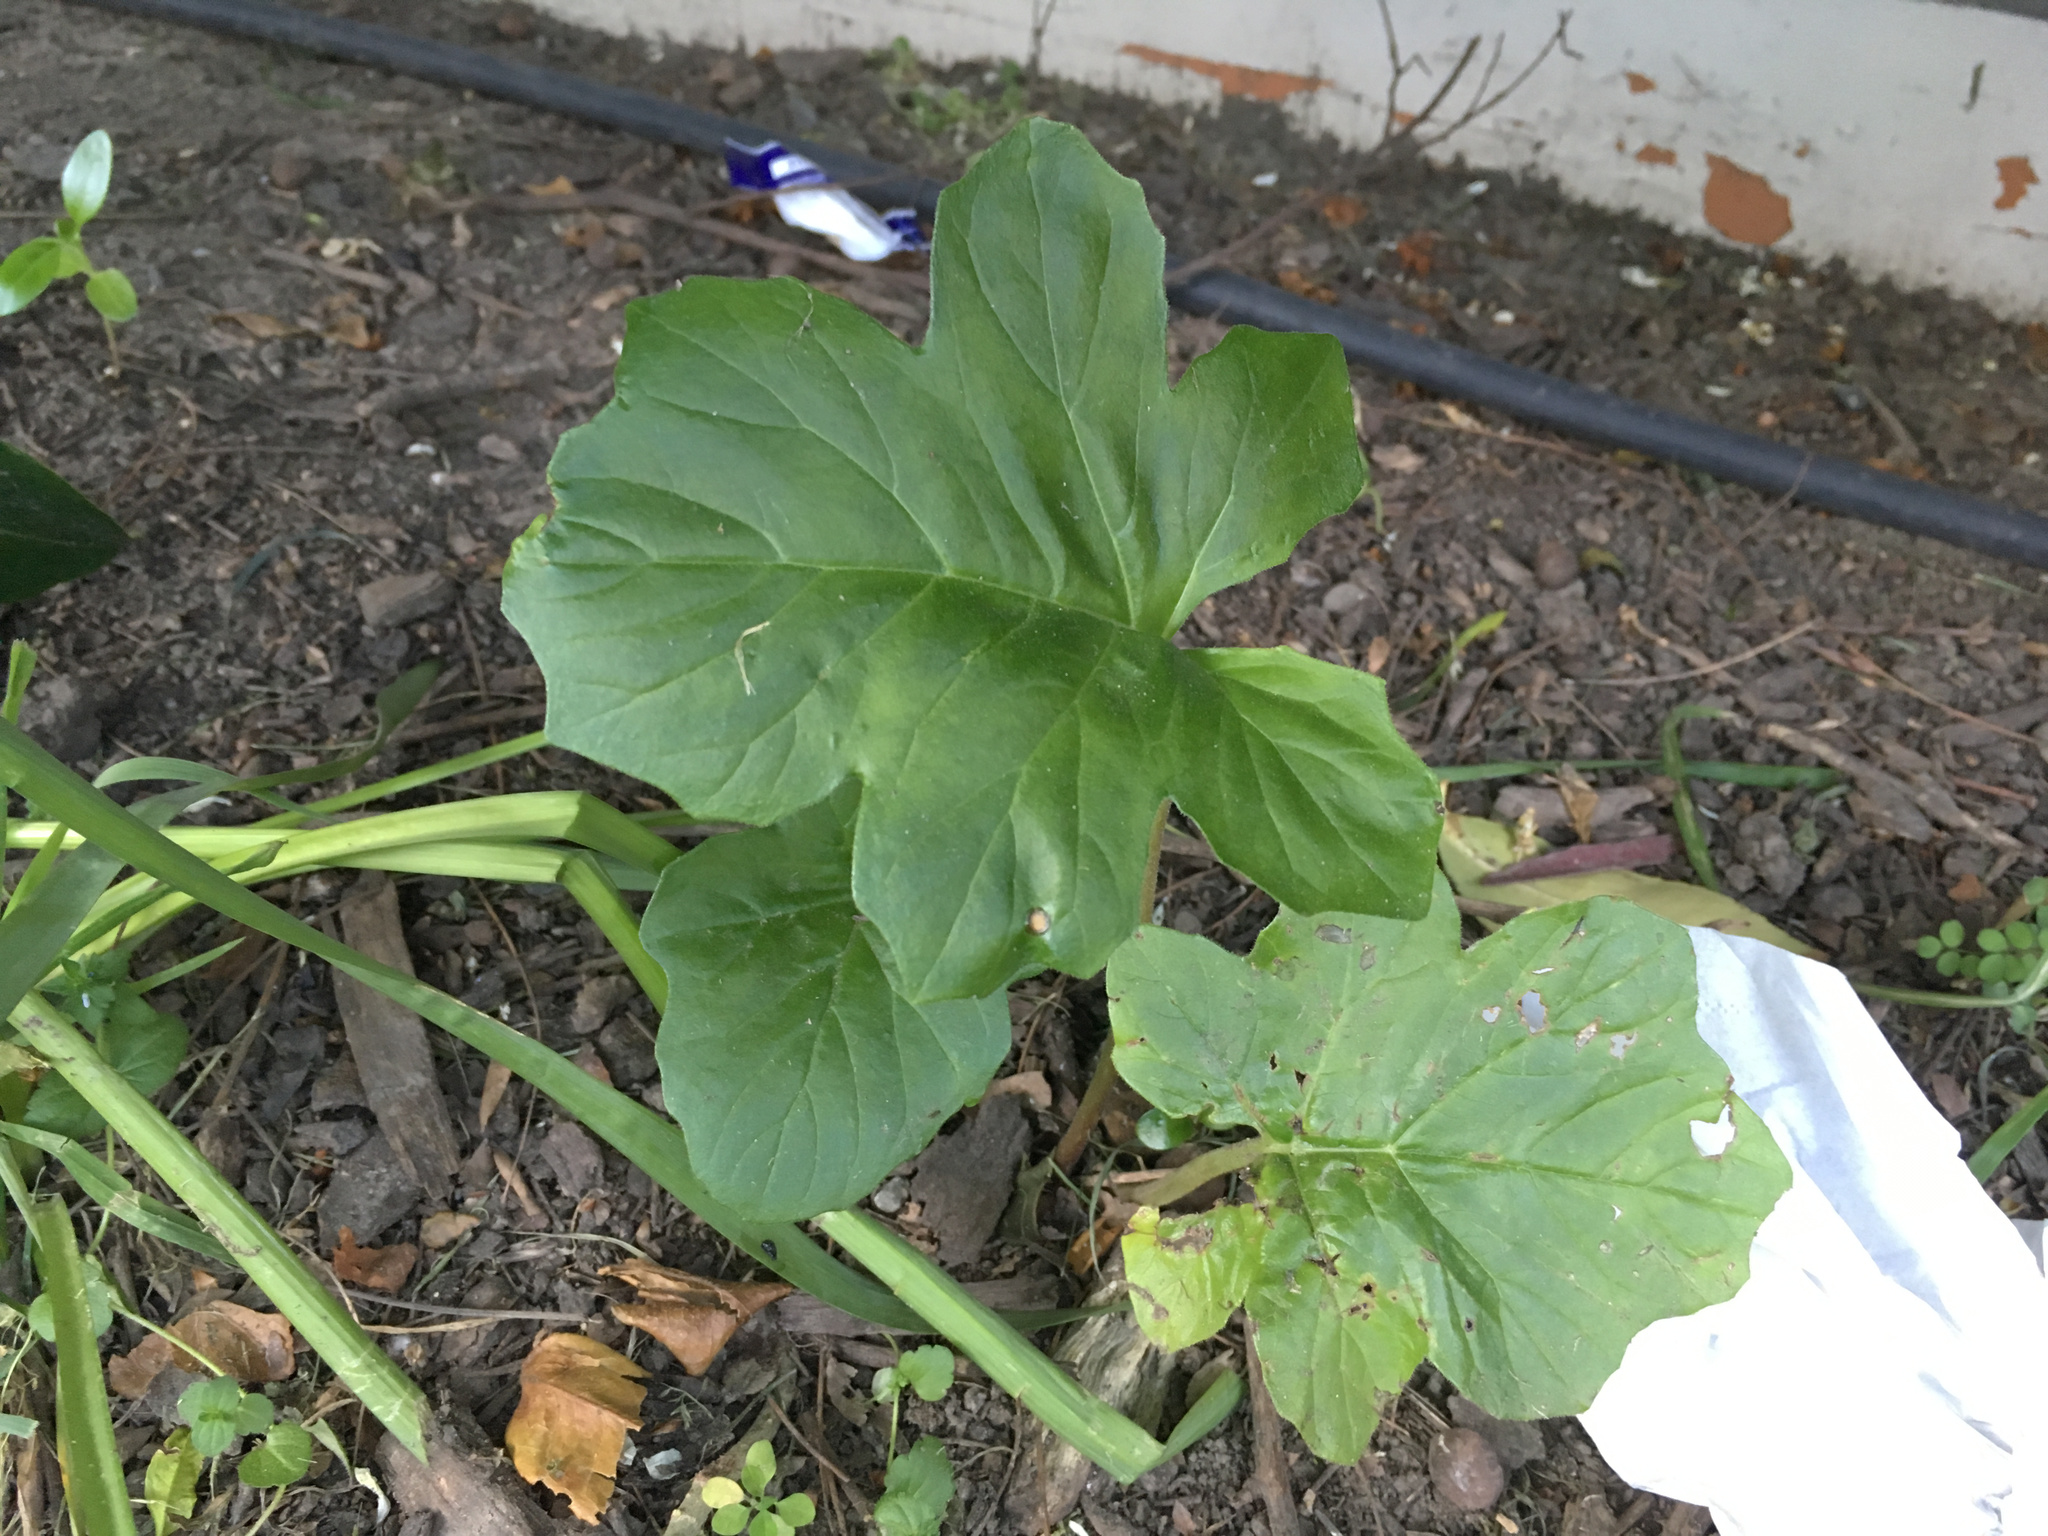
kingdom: Plantae
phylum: Tracheophyta
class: Magnoliopsida
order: Lamiales
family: Acanthaceae
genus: Acanthus
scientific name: Acanthus mollis
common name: Bear's-breech
